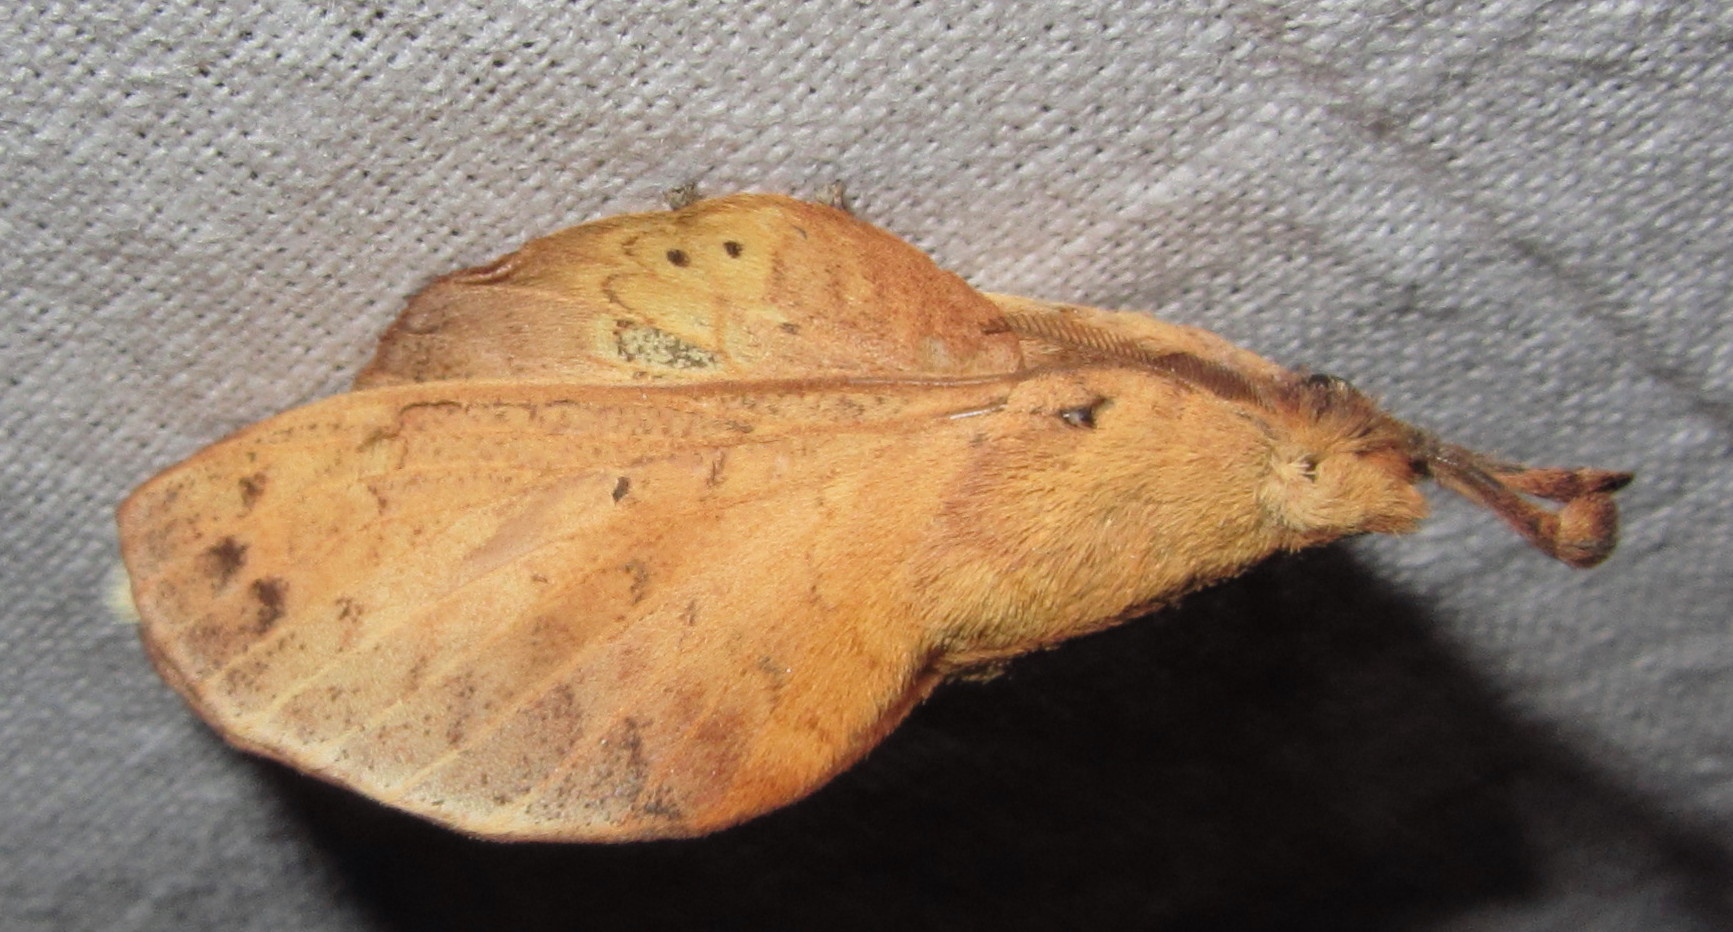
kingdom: Animalia
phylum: Arthropoda
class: Insecta
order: Lepidoptera
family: Lasiocampidae
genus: Gastropacha
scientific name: Gastropacha pardale
